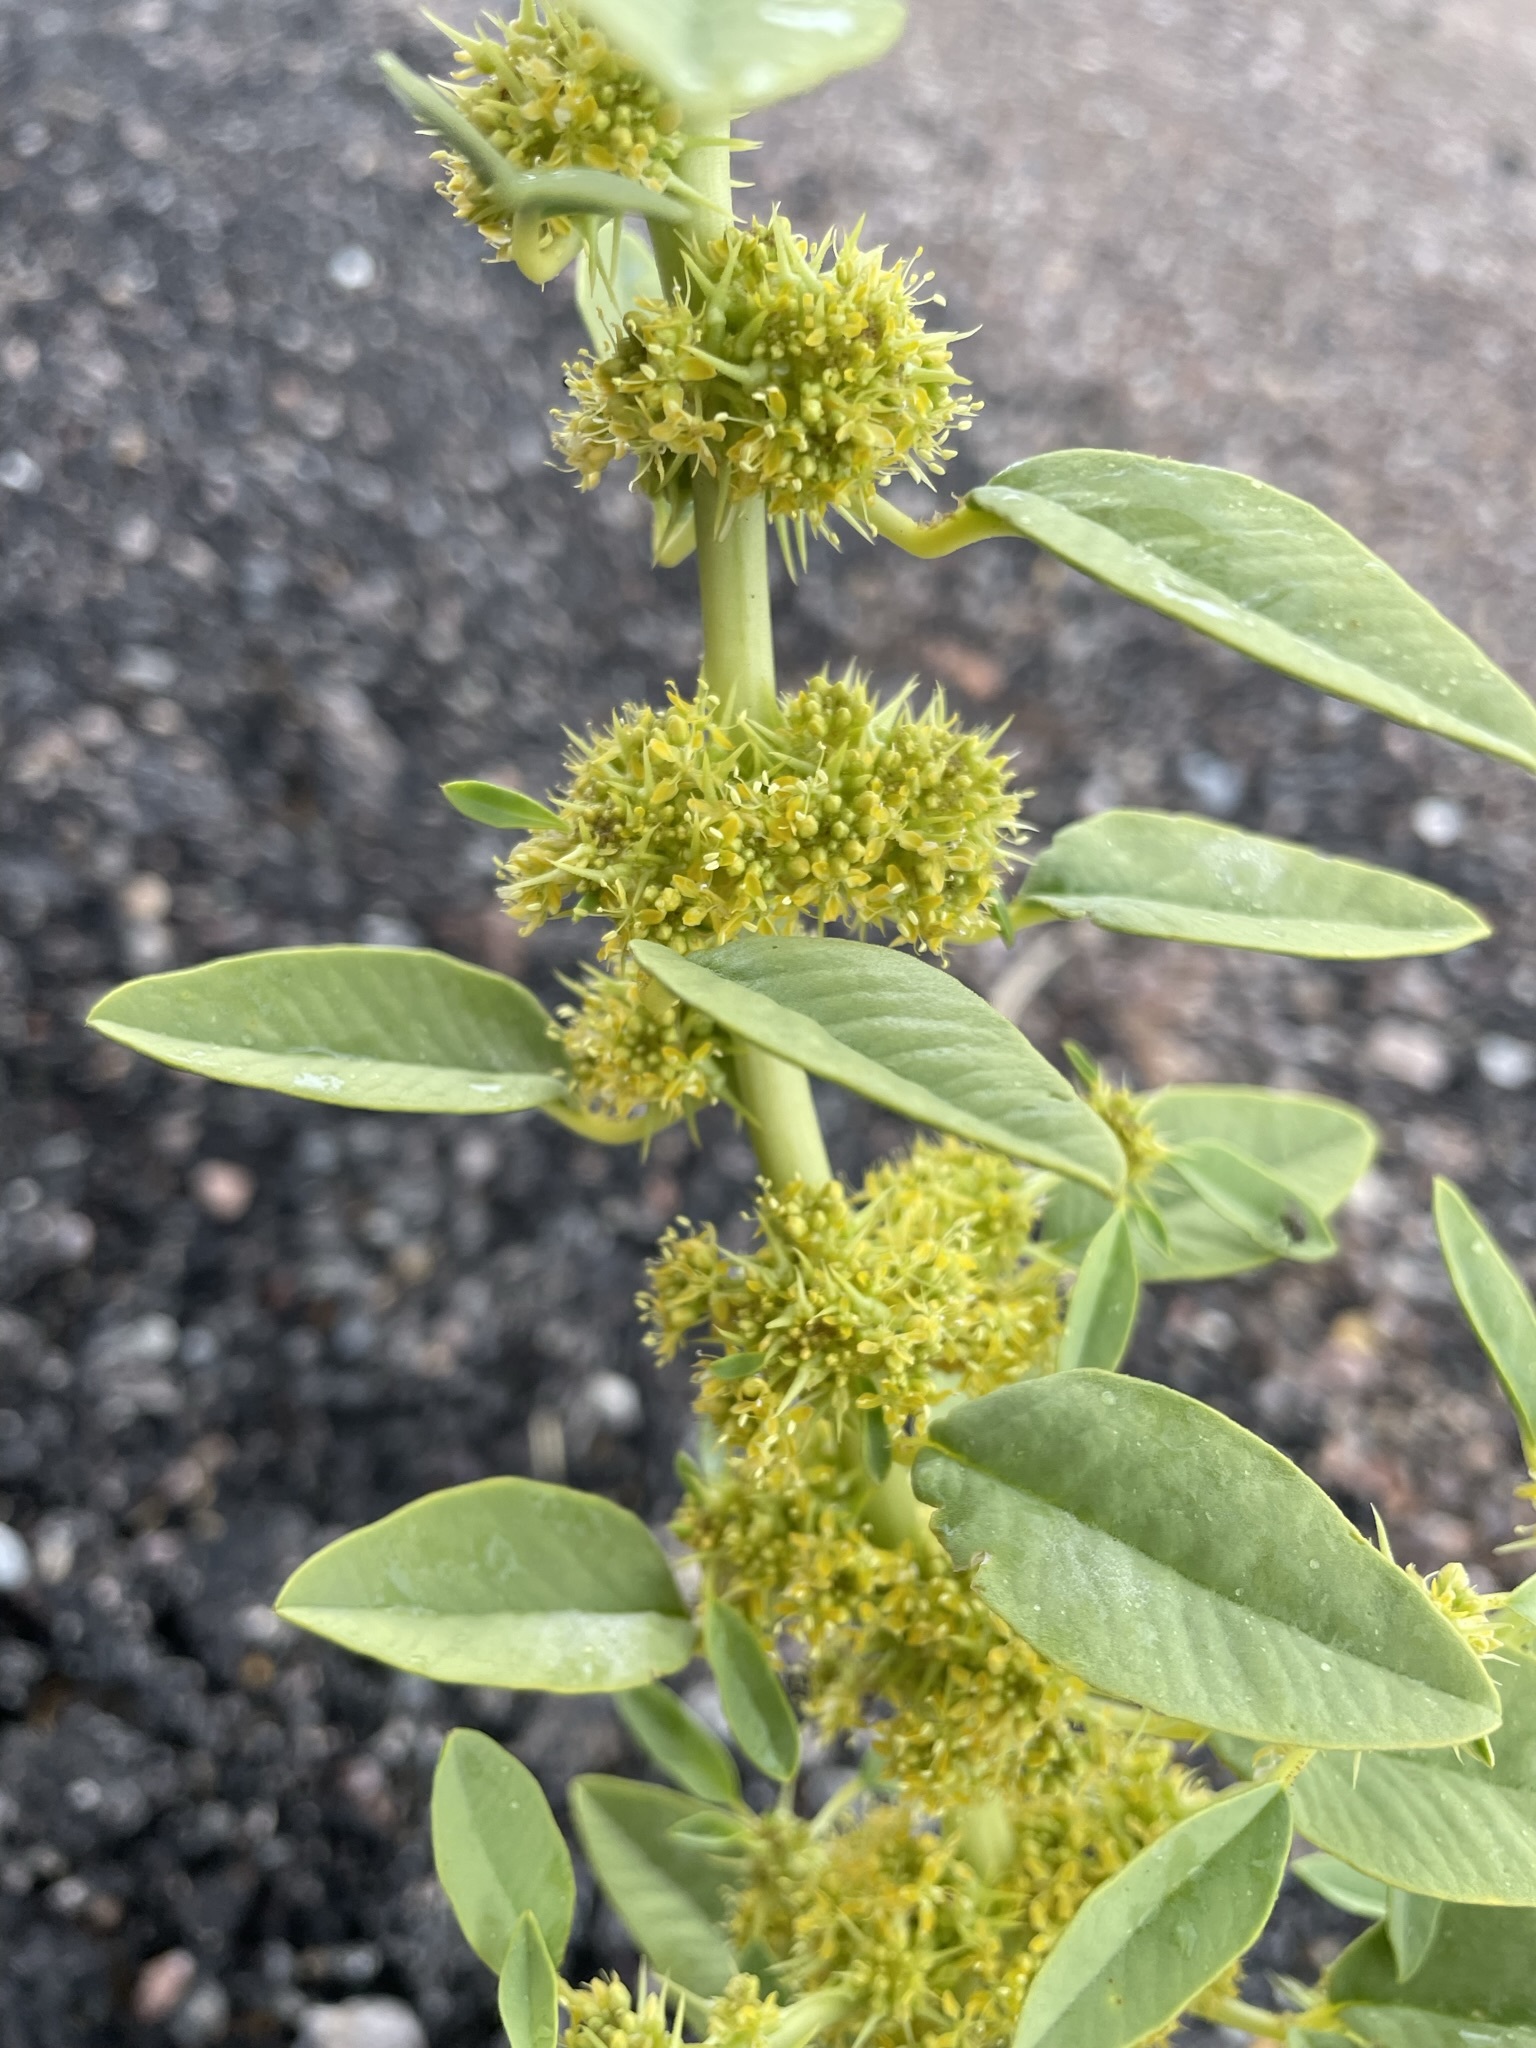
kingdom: Plantae
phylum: Tracheophyta
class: Magnoliopsida
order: Brassicales
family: Cleomaceae
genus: Cleomella
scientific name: Cleomella oxystyloides
